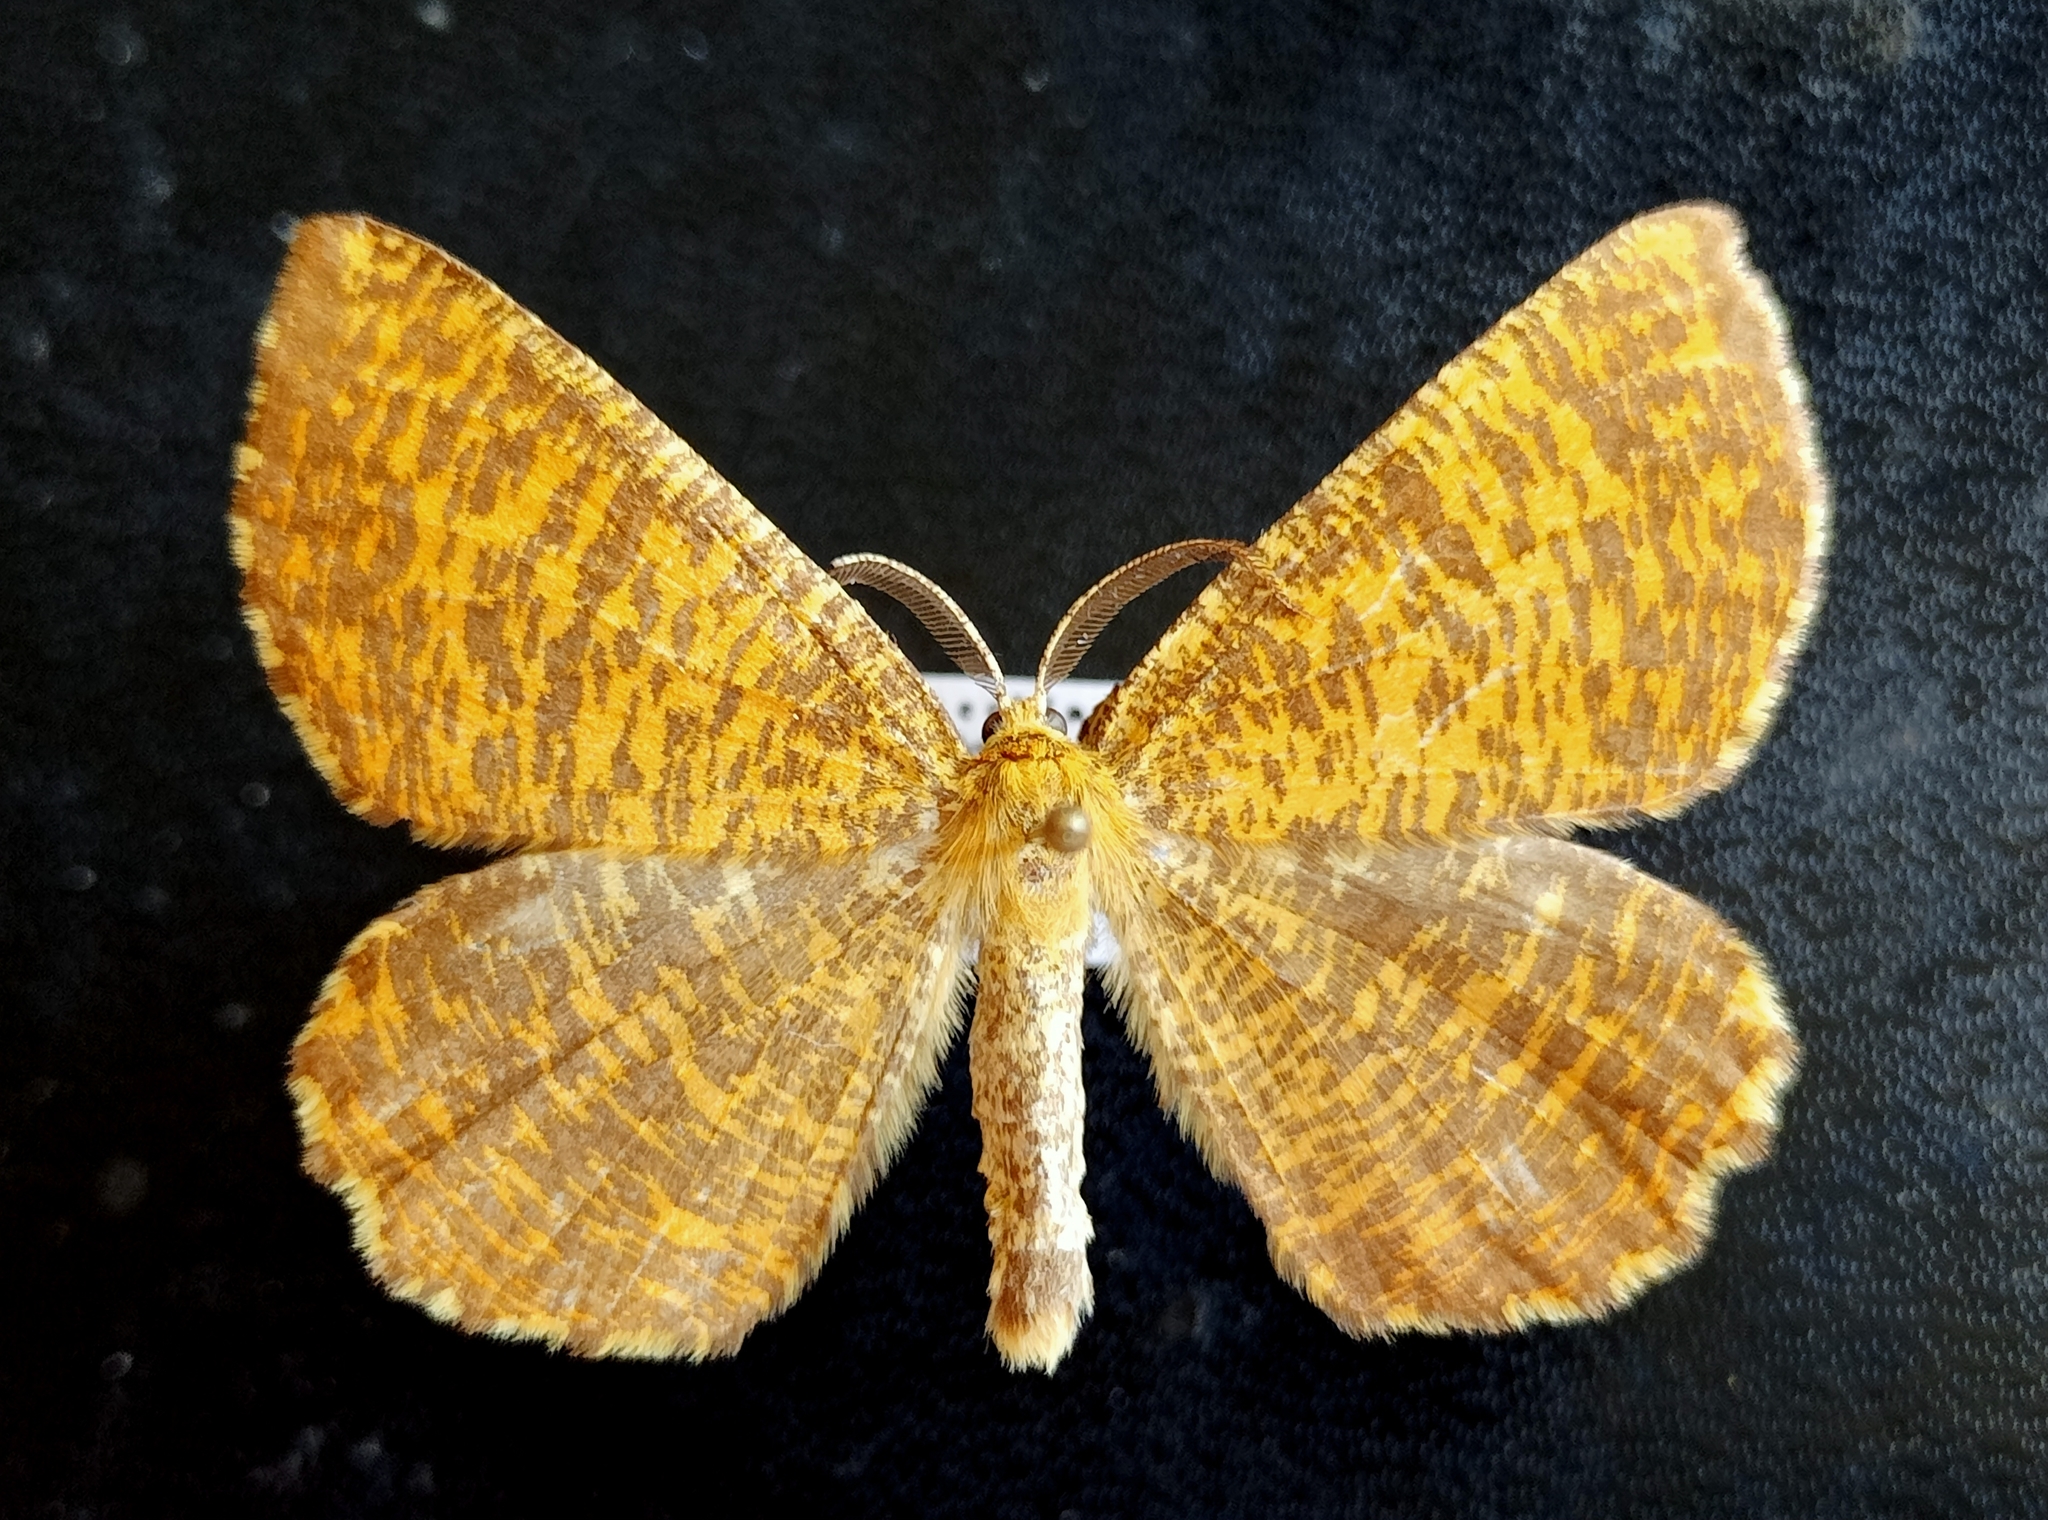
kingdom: Animalia
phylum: Arthropoda
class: Insecta
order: Lepidoptera
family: Geometridae
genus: Angerona
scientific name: Angerona prunaria
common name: Orange moth
